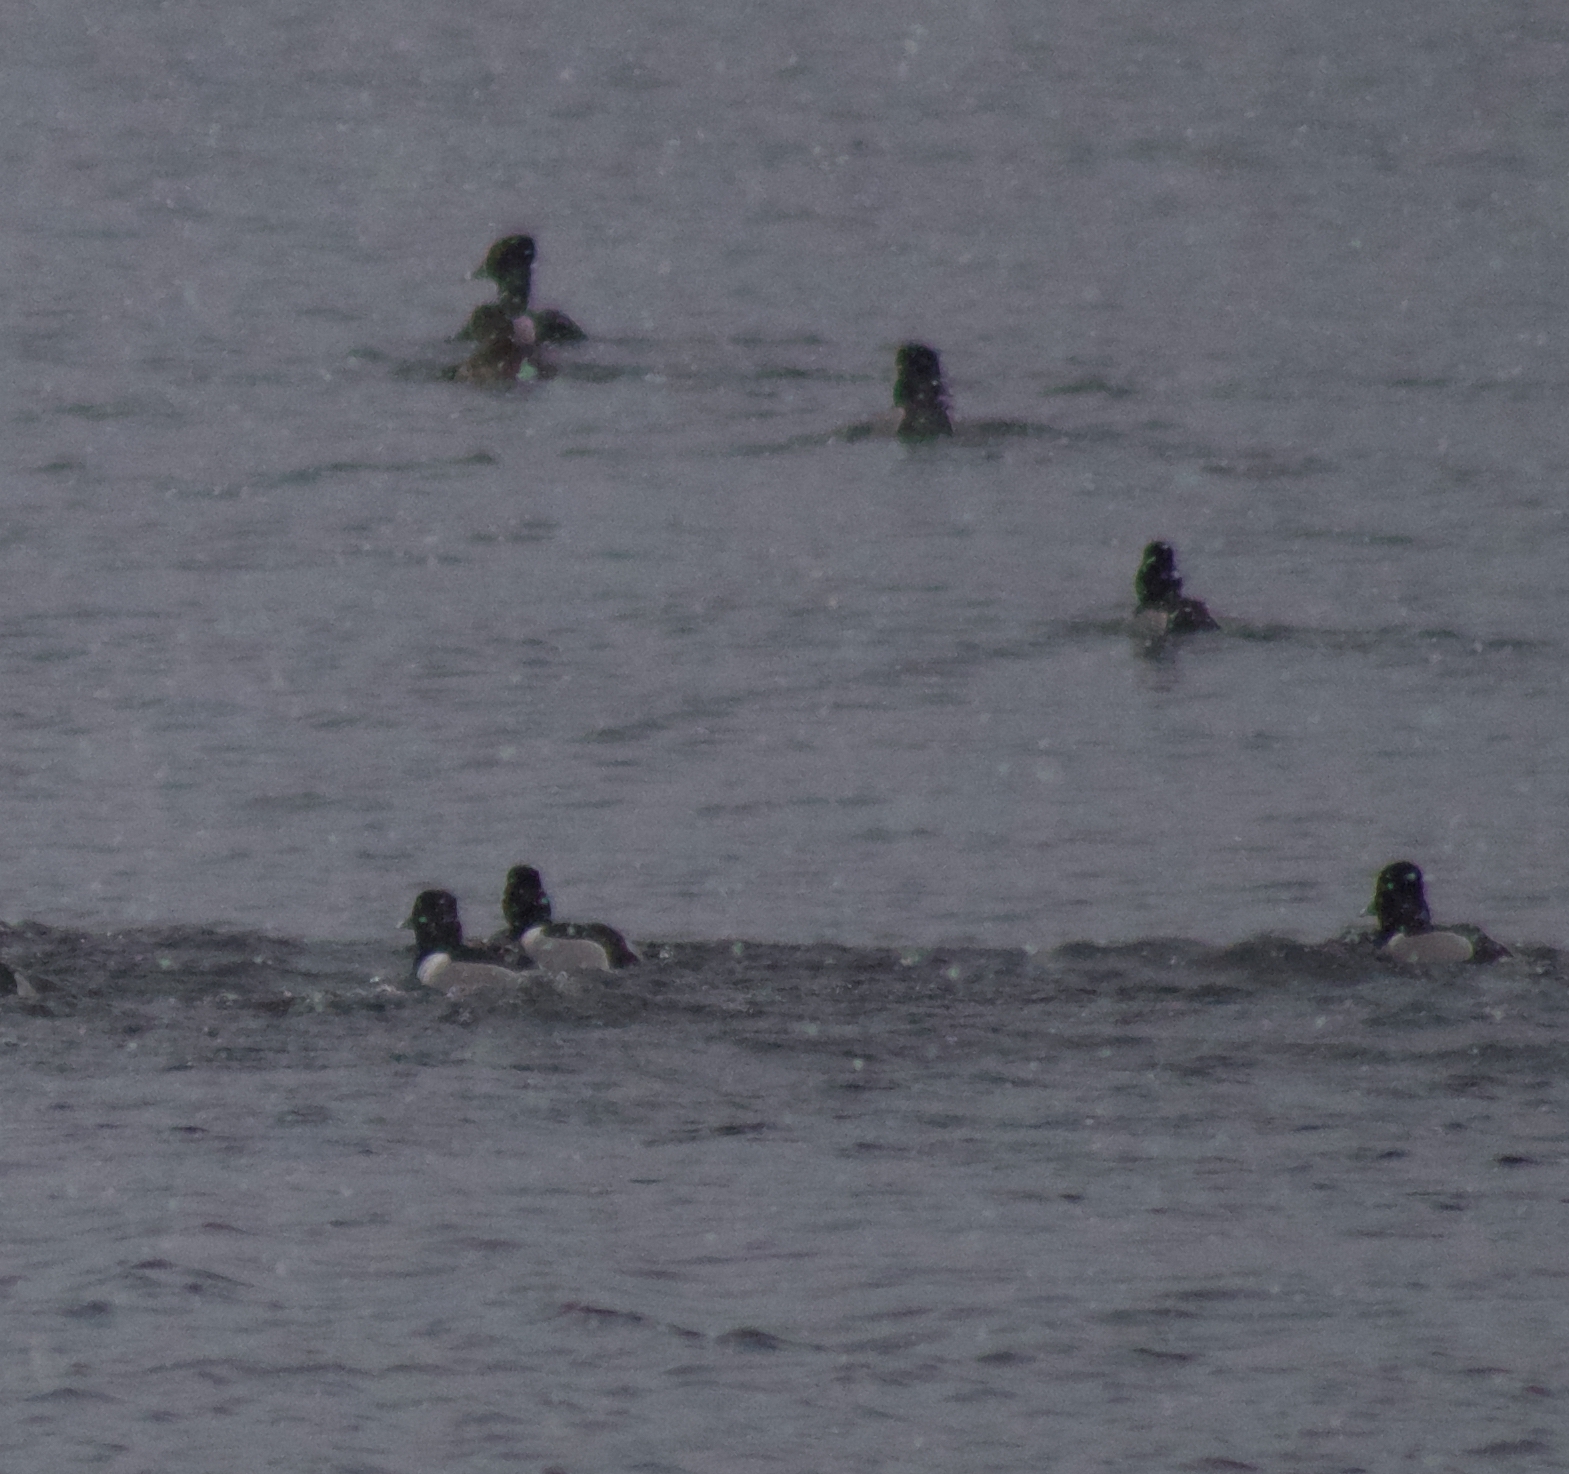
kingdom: Animalia
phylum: Chordata
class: Aves
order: Anseriformes
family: Anatidae
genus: Aythya
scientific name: Aythya collaris
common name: Ring-necked duck
